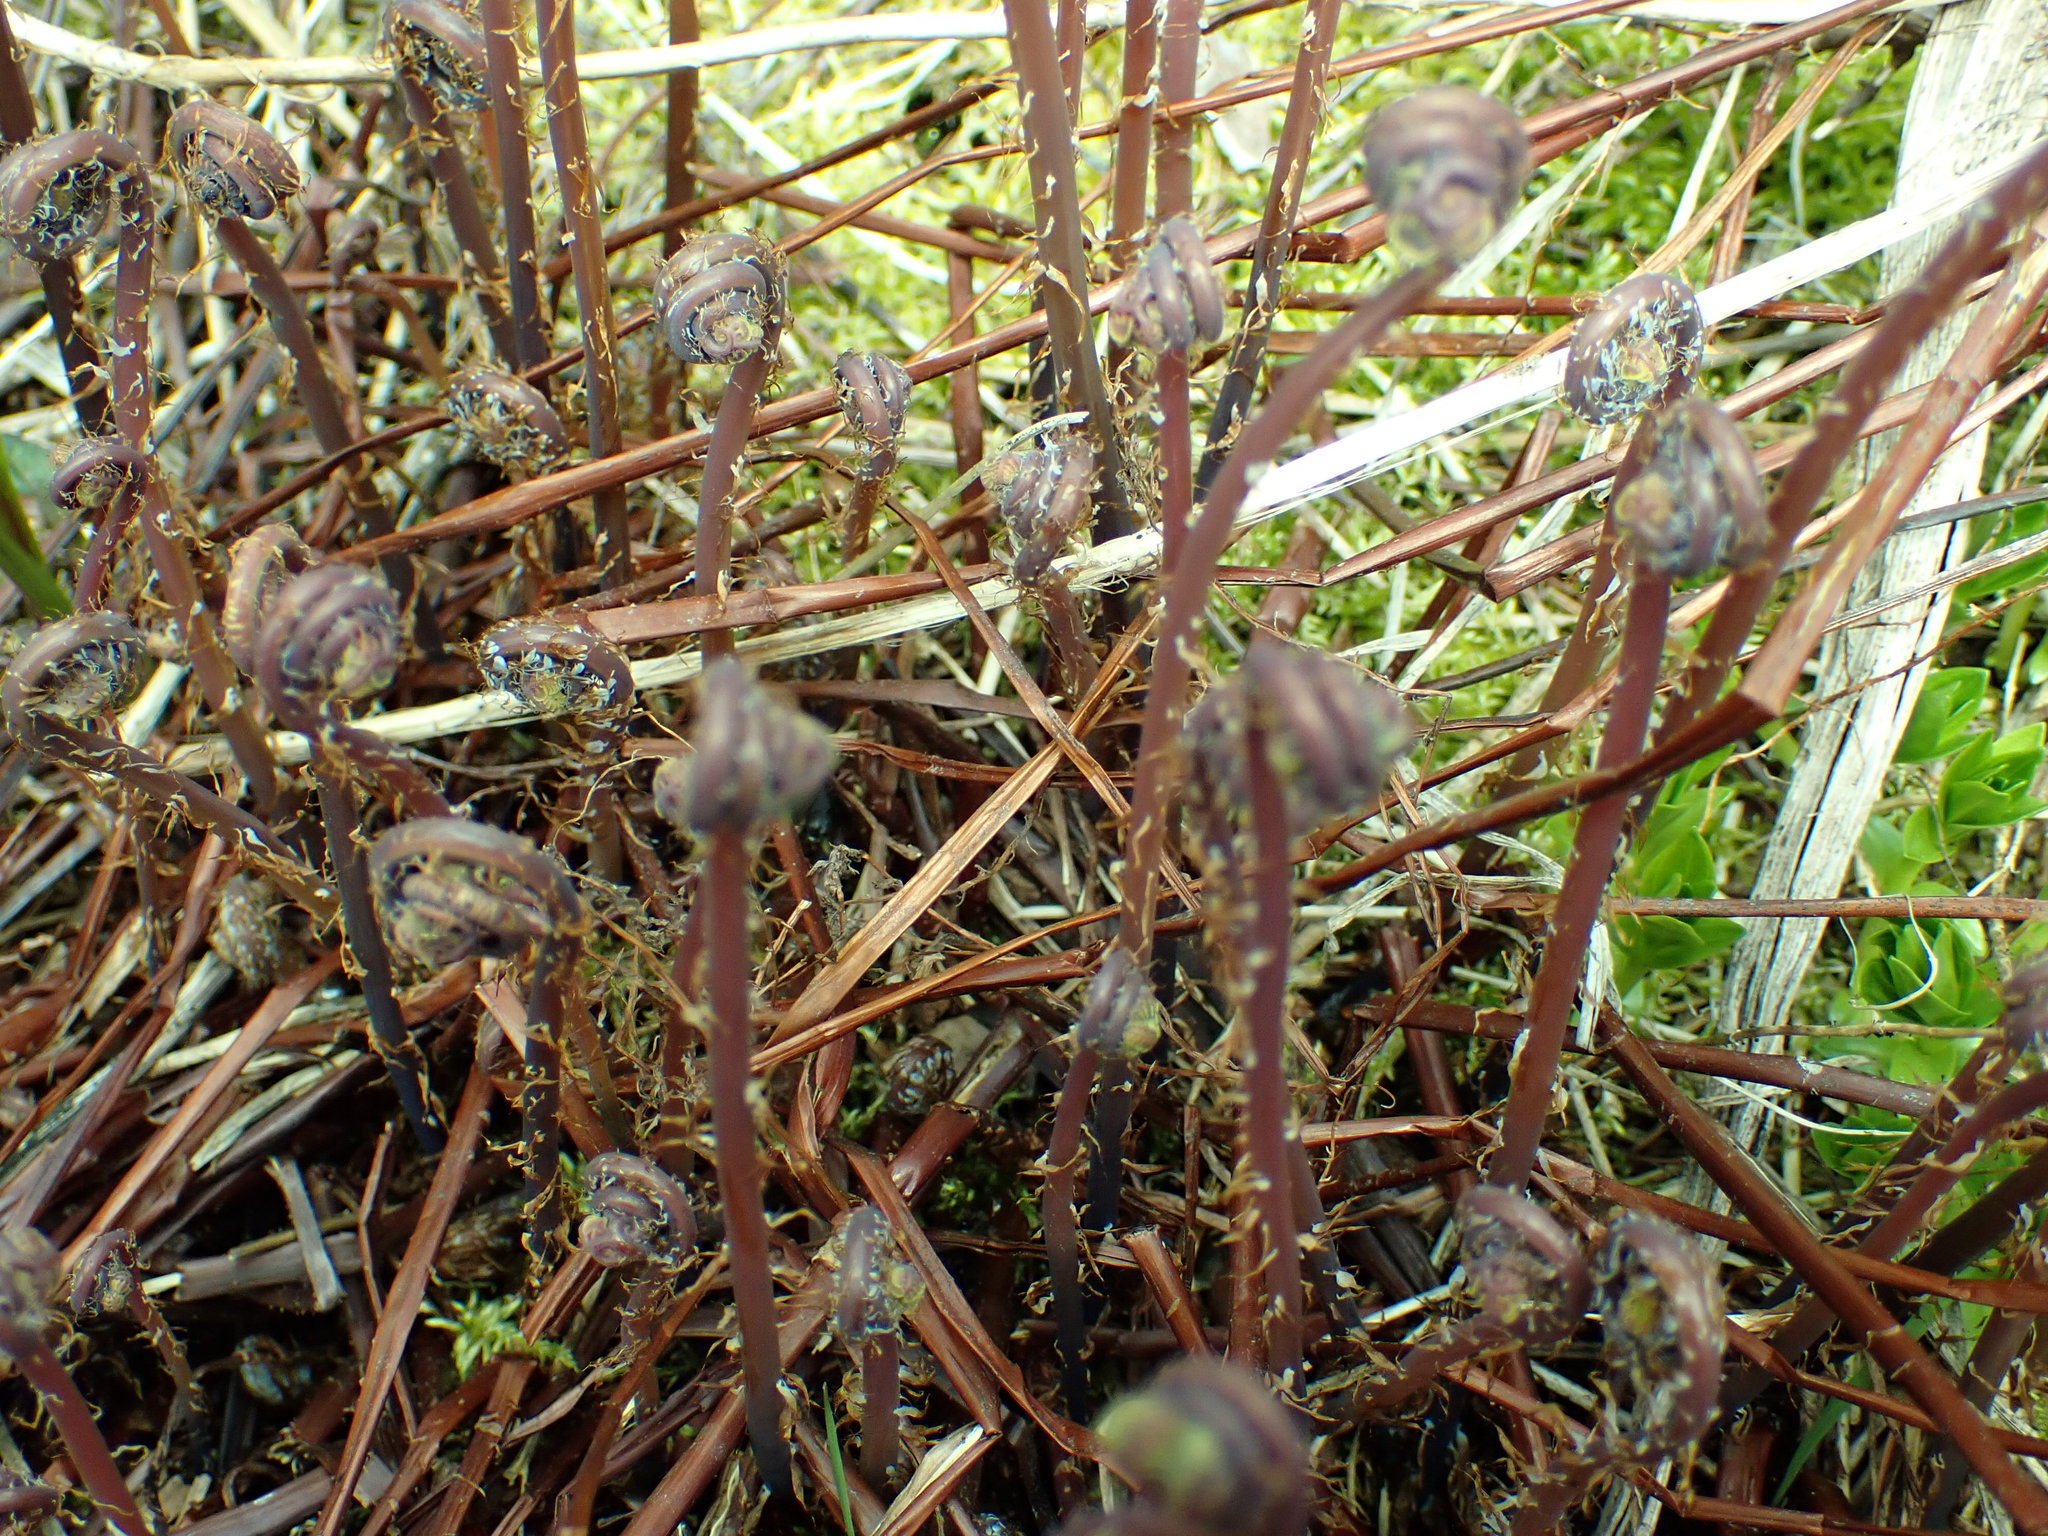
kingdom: Plantae
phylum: Tracheophyta
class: Polypodiopsida
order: Polypodiales
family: Pteridaceae
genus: Adiantum
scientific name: Adiantum aleuticum
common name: Aleutian maidenhair fern
